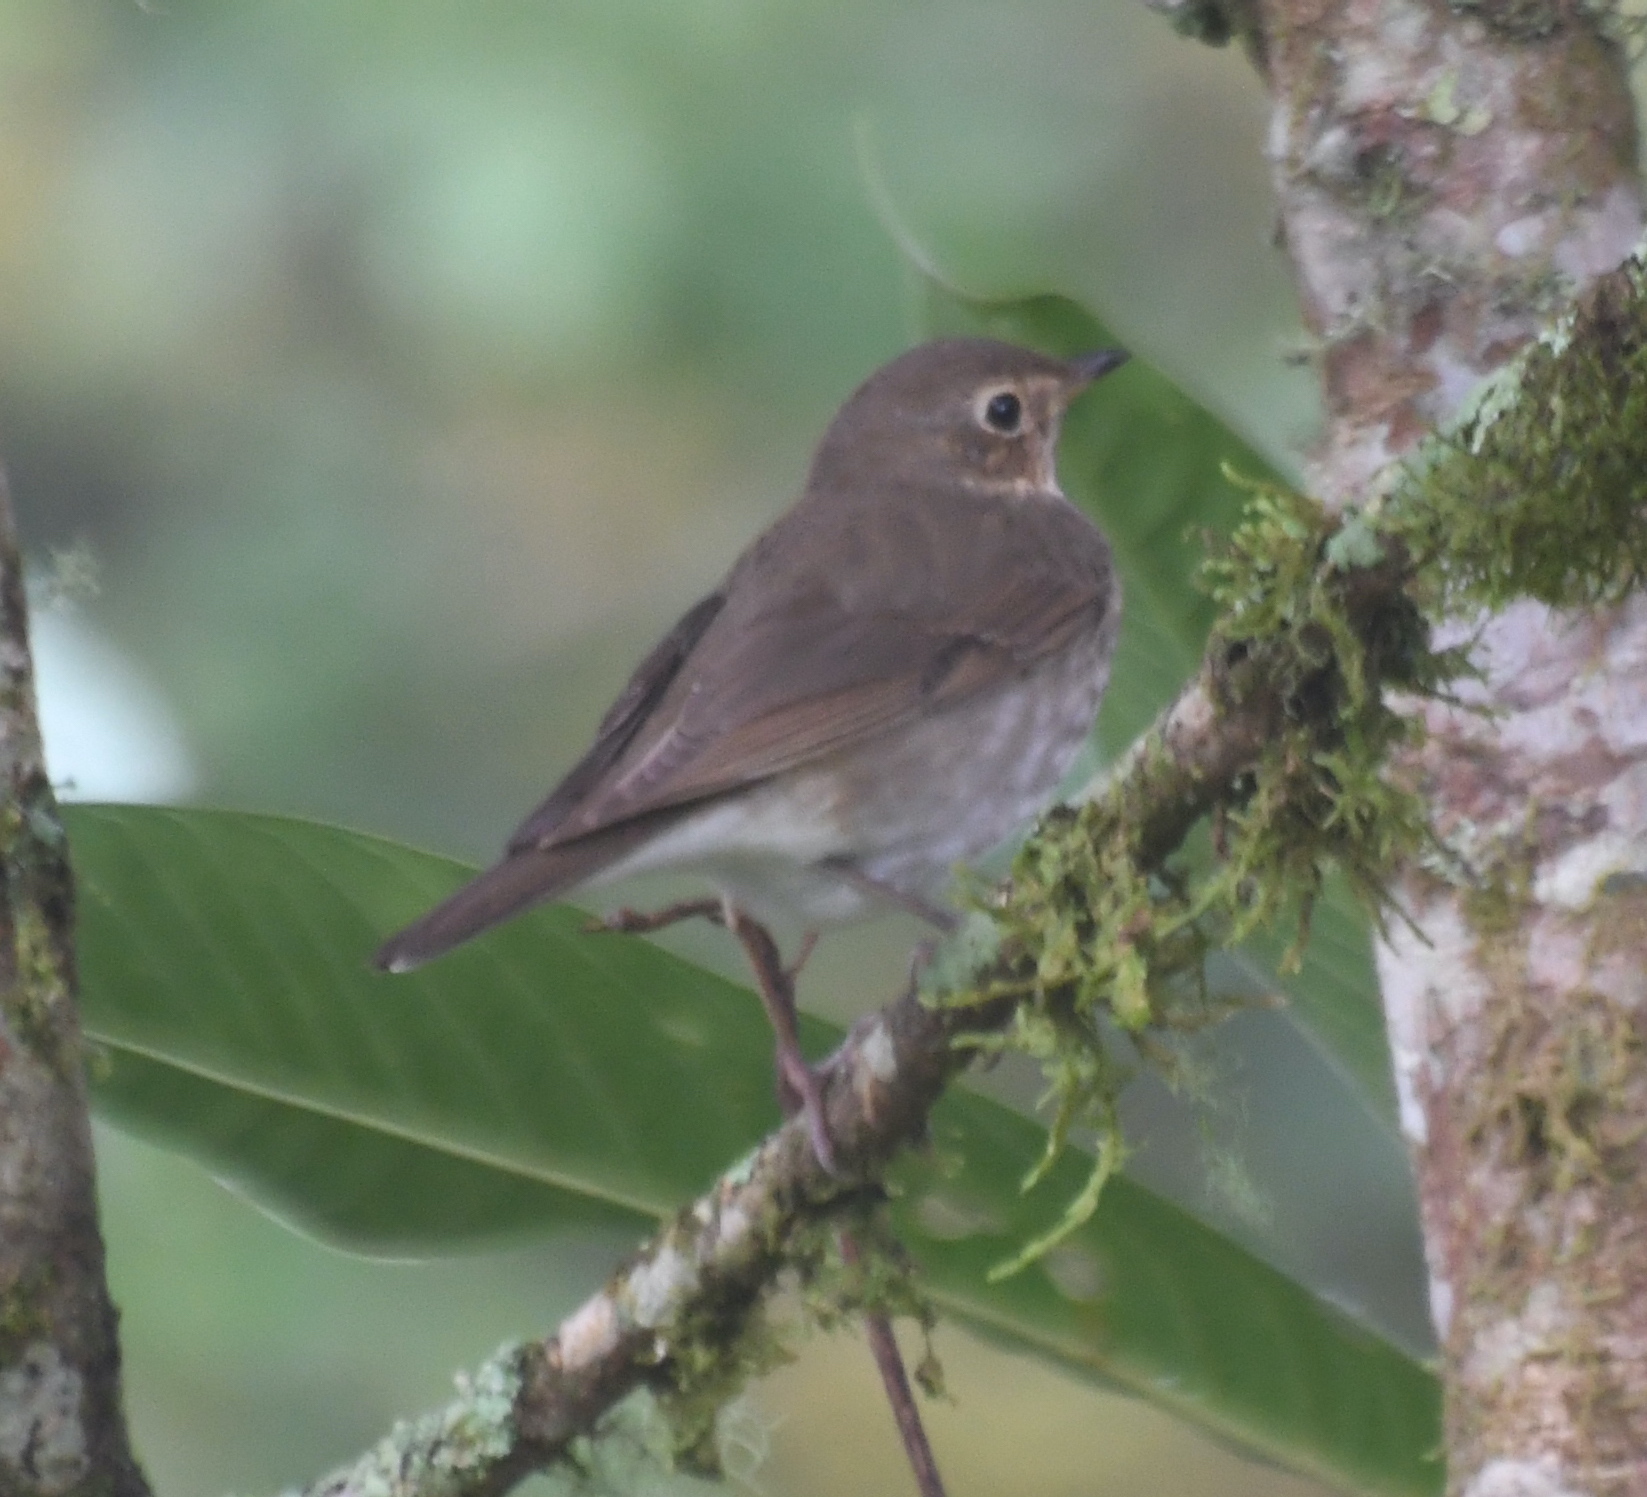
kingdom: Animalia
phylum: Chordata
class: Aves
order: Passeriformes
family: Turdidae
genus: Catharus
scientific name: Catharus ustulatus
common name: Swainson's thrush
